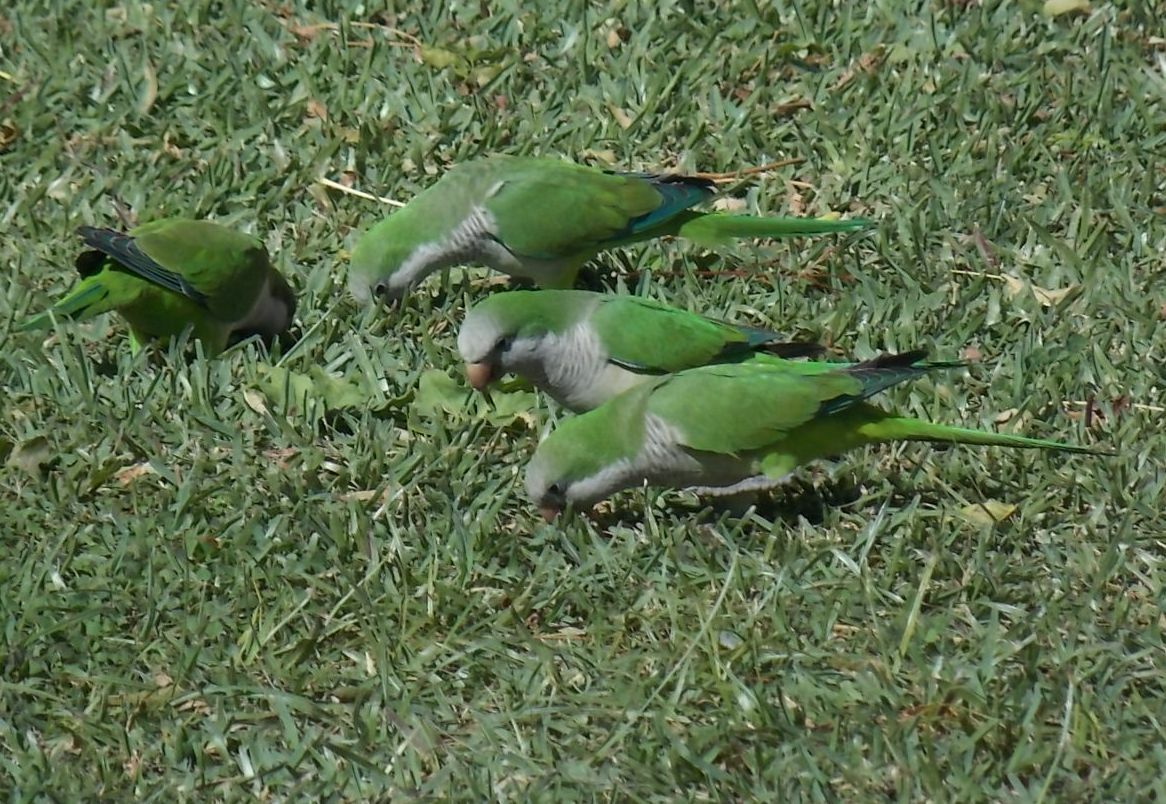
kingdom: Animalia
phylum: Chordata
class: Aves
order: Psittaciformes
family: Psittacidae
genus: Myiopsitta
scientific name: Myiopsitta monachus
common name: Monk parakeet
